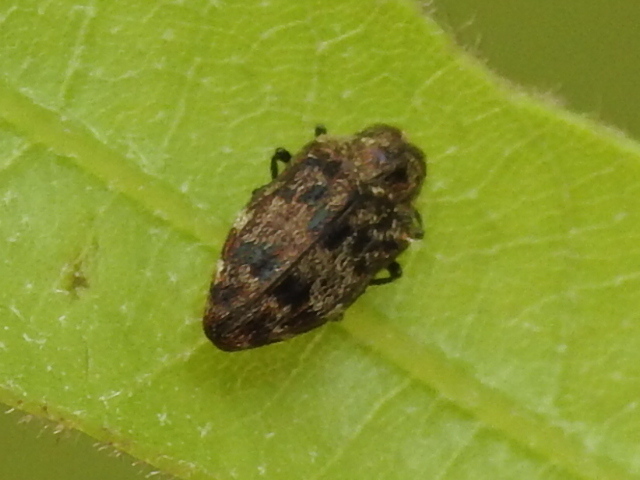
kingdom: Animalia
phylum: Arthropoda
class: Insecta
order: Coleoptera
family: Buprestidae
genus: Brachys
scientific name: Brachys ovatus
